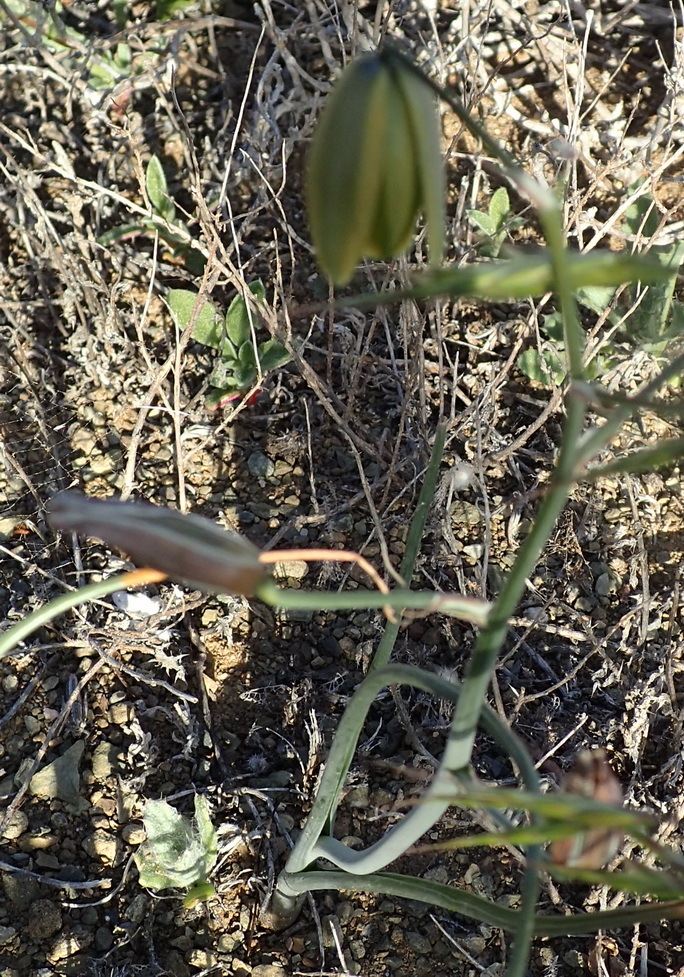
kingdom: Plantae
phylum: Tracheophyta
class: Liliopsida
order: Asparagales
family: Asparagaceae
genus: Albuca
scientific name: Albuca juncifolia
